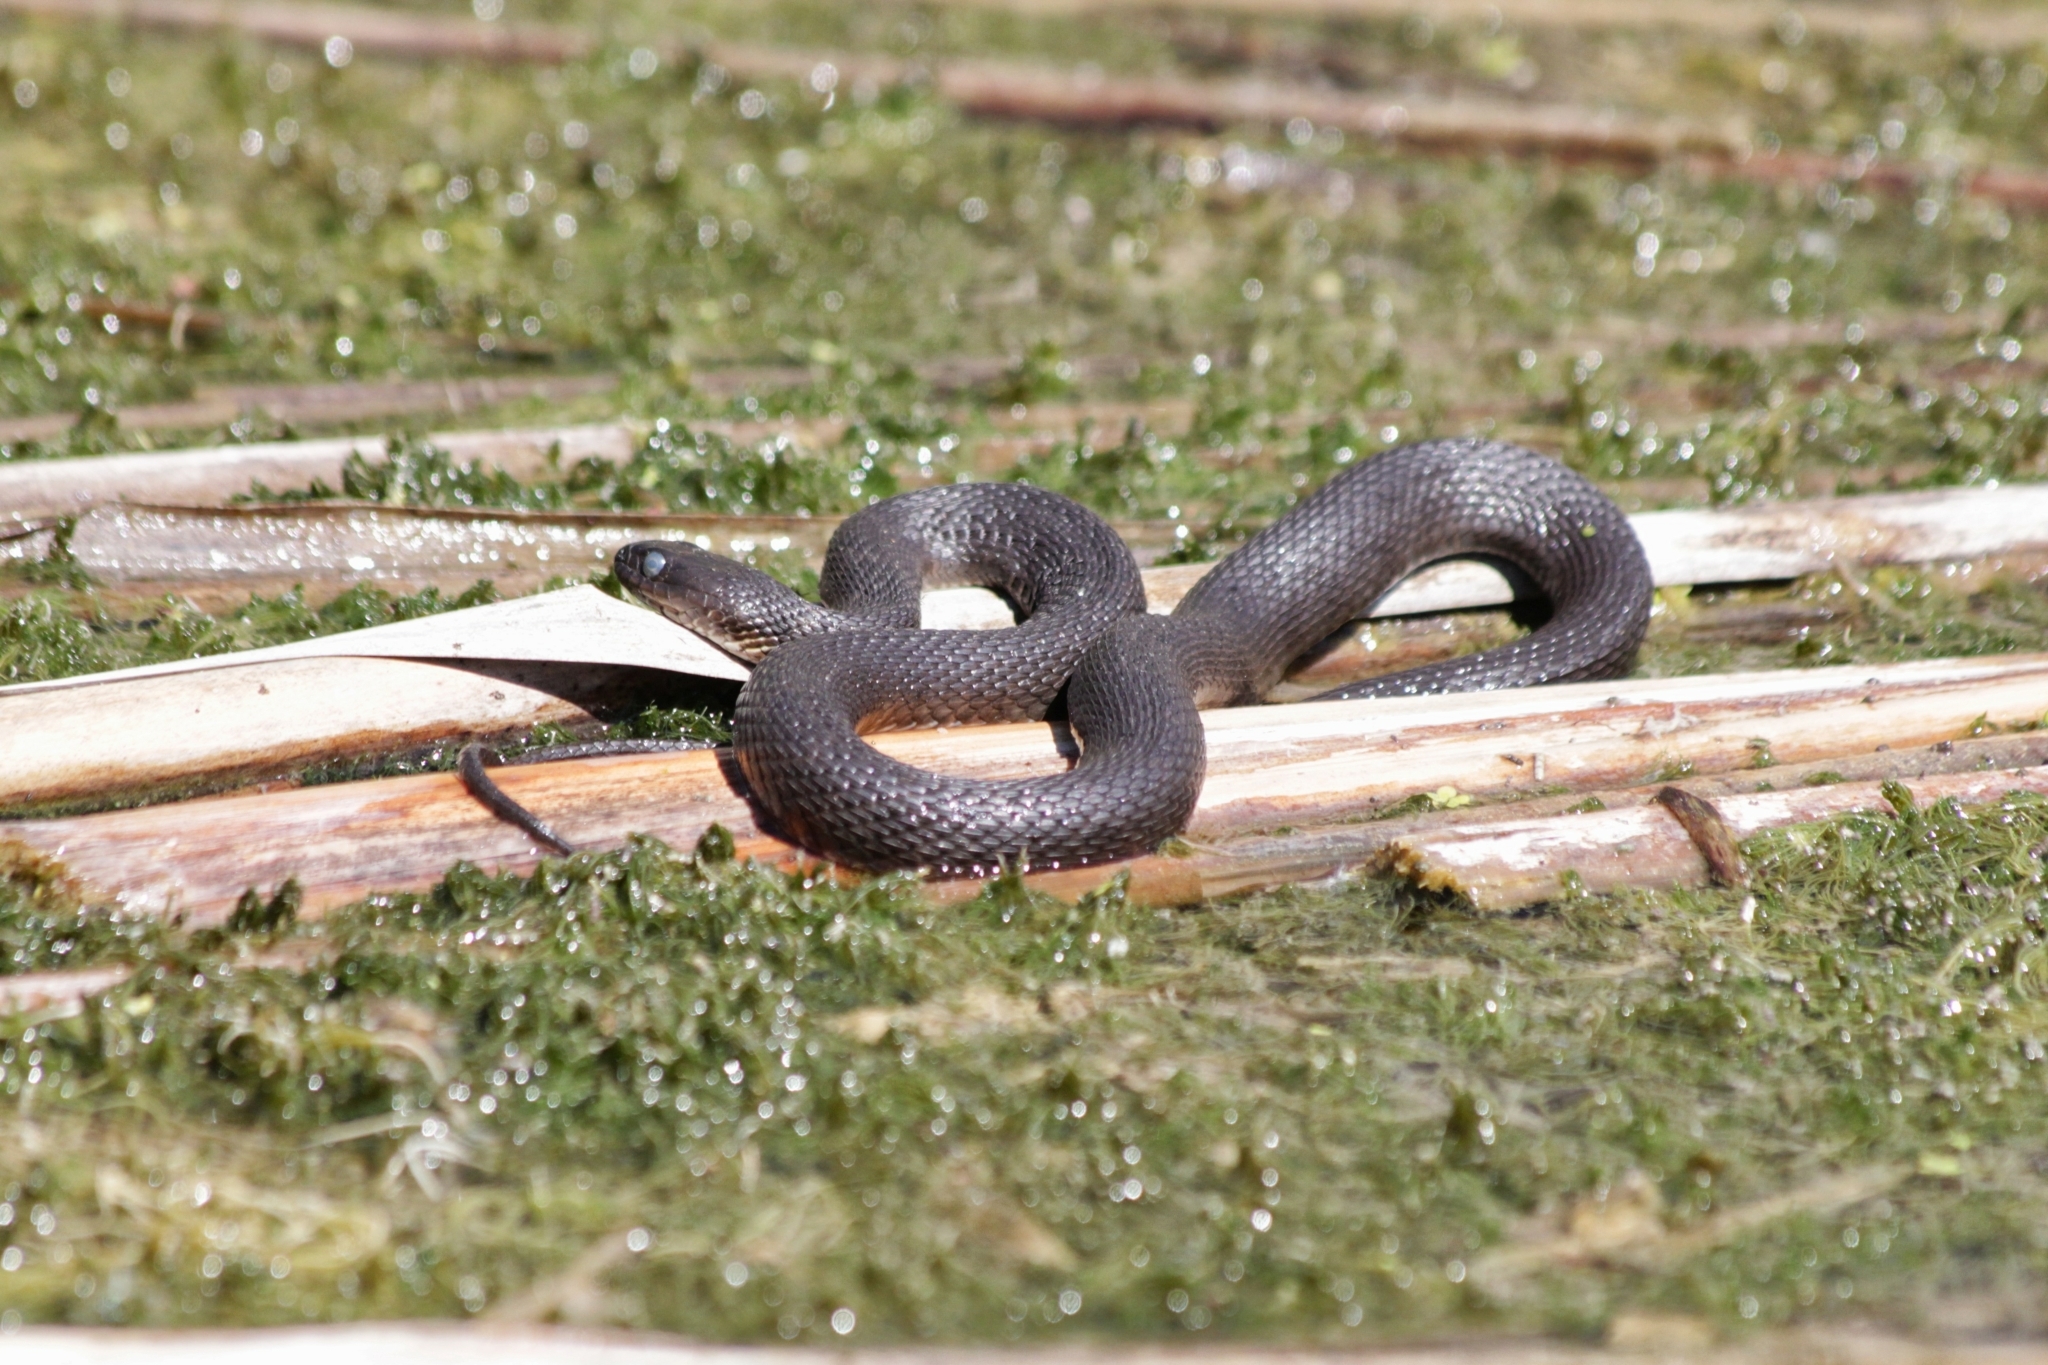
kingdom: Animalia
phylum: Chordata
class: Squamata
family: Colubridae
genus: Nerodia
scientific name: Nerodia sipedon
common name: Northern water snake
